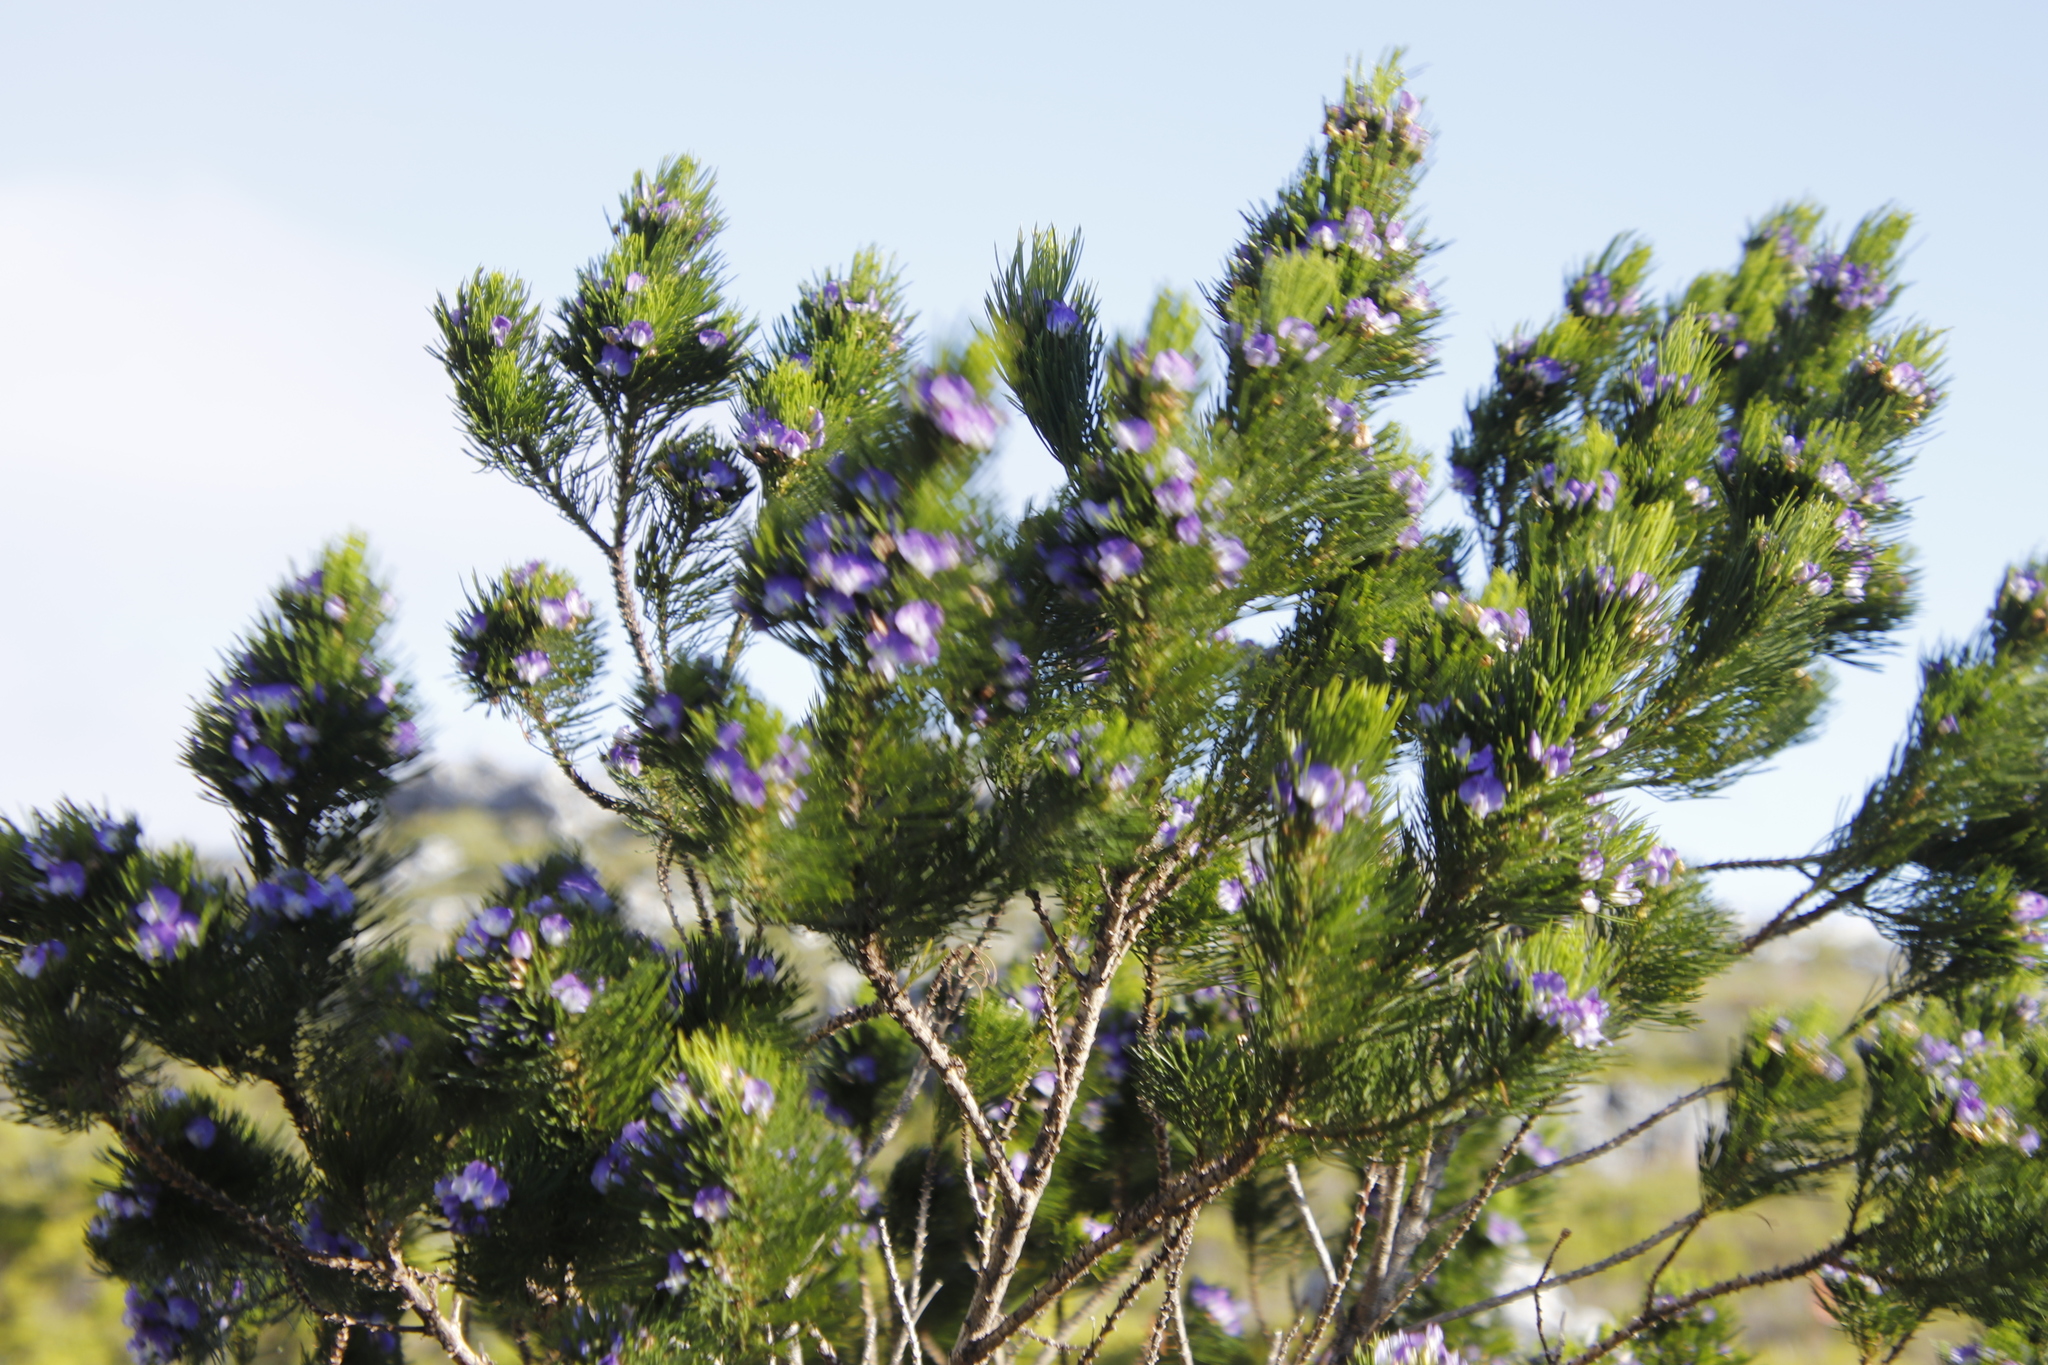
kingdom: Plantae
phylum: Tracheophyta
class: Magnoliopsida
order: Fabales
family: Fabaceae
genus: Psoralea
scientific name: Psoralea pinnata
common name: African scurfpea
